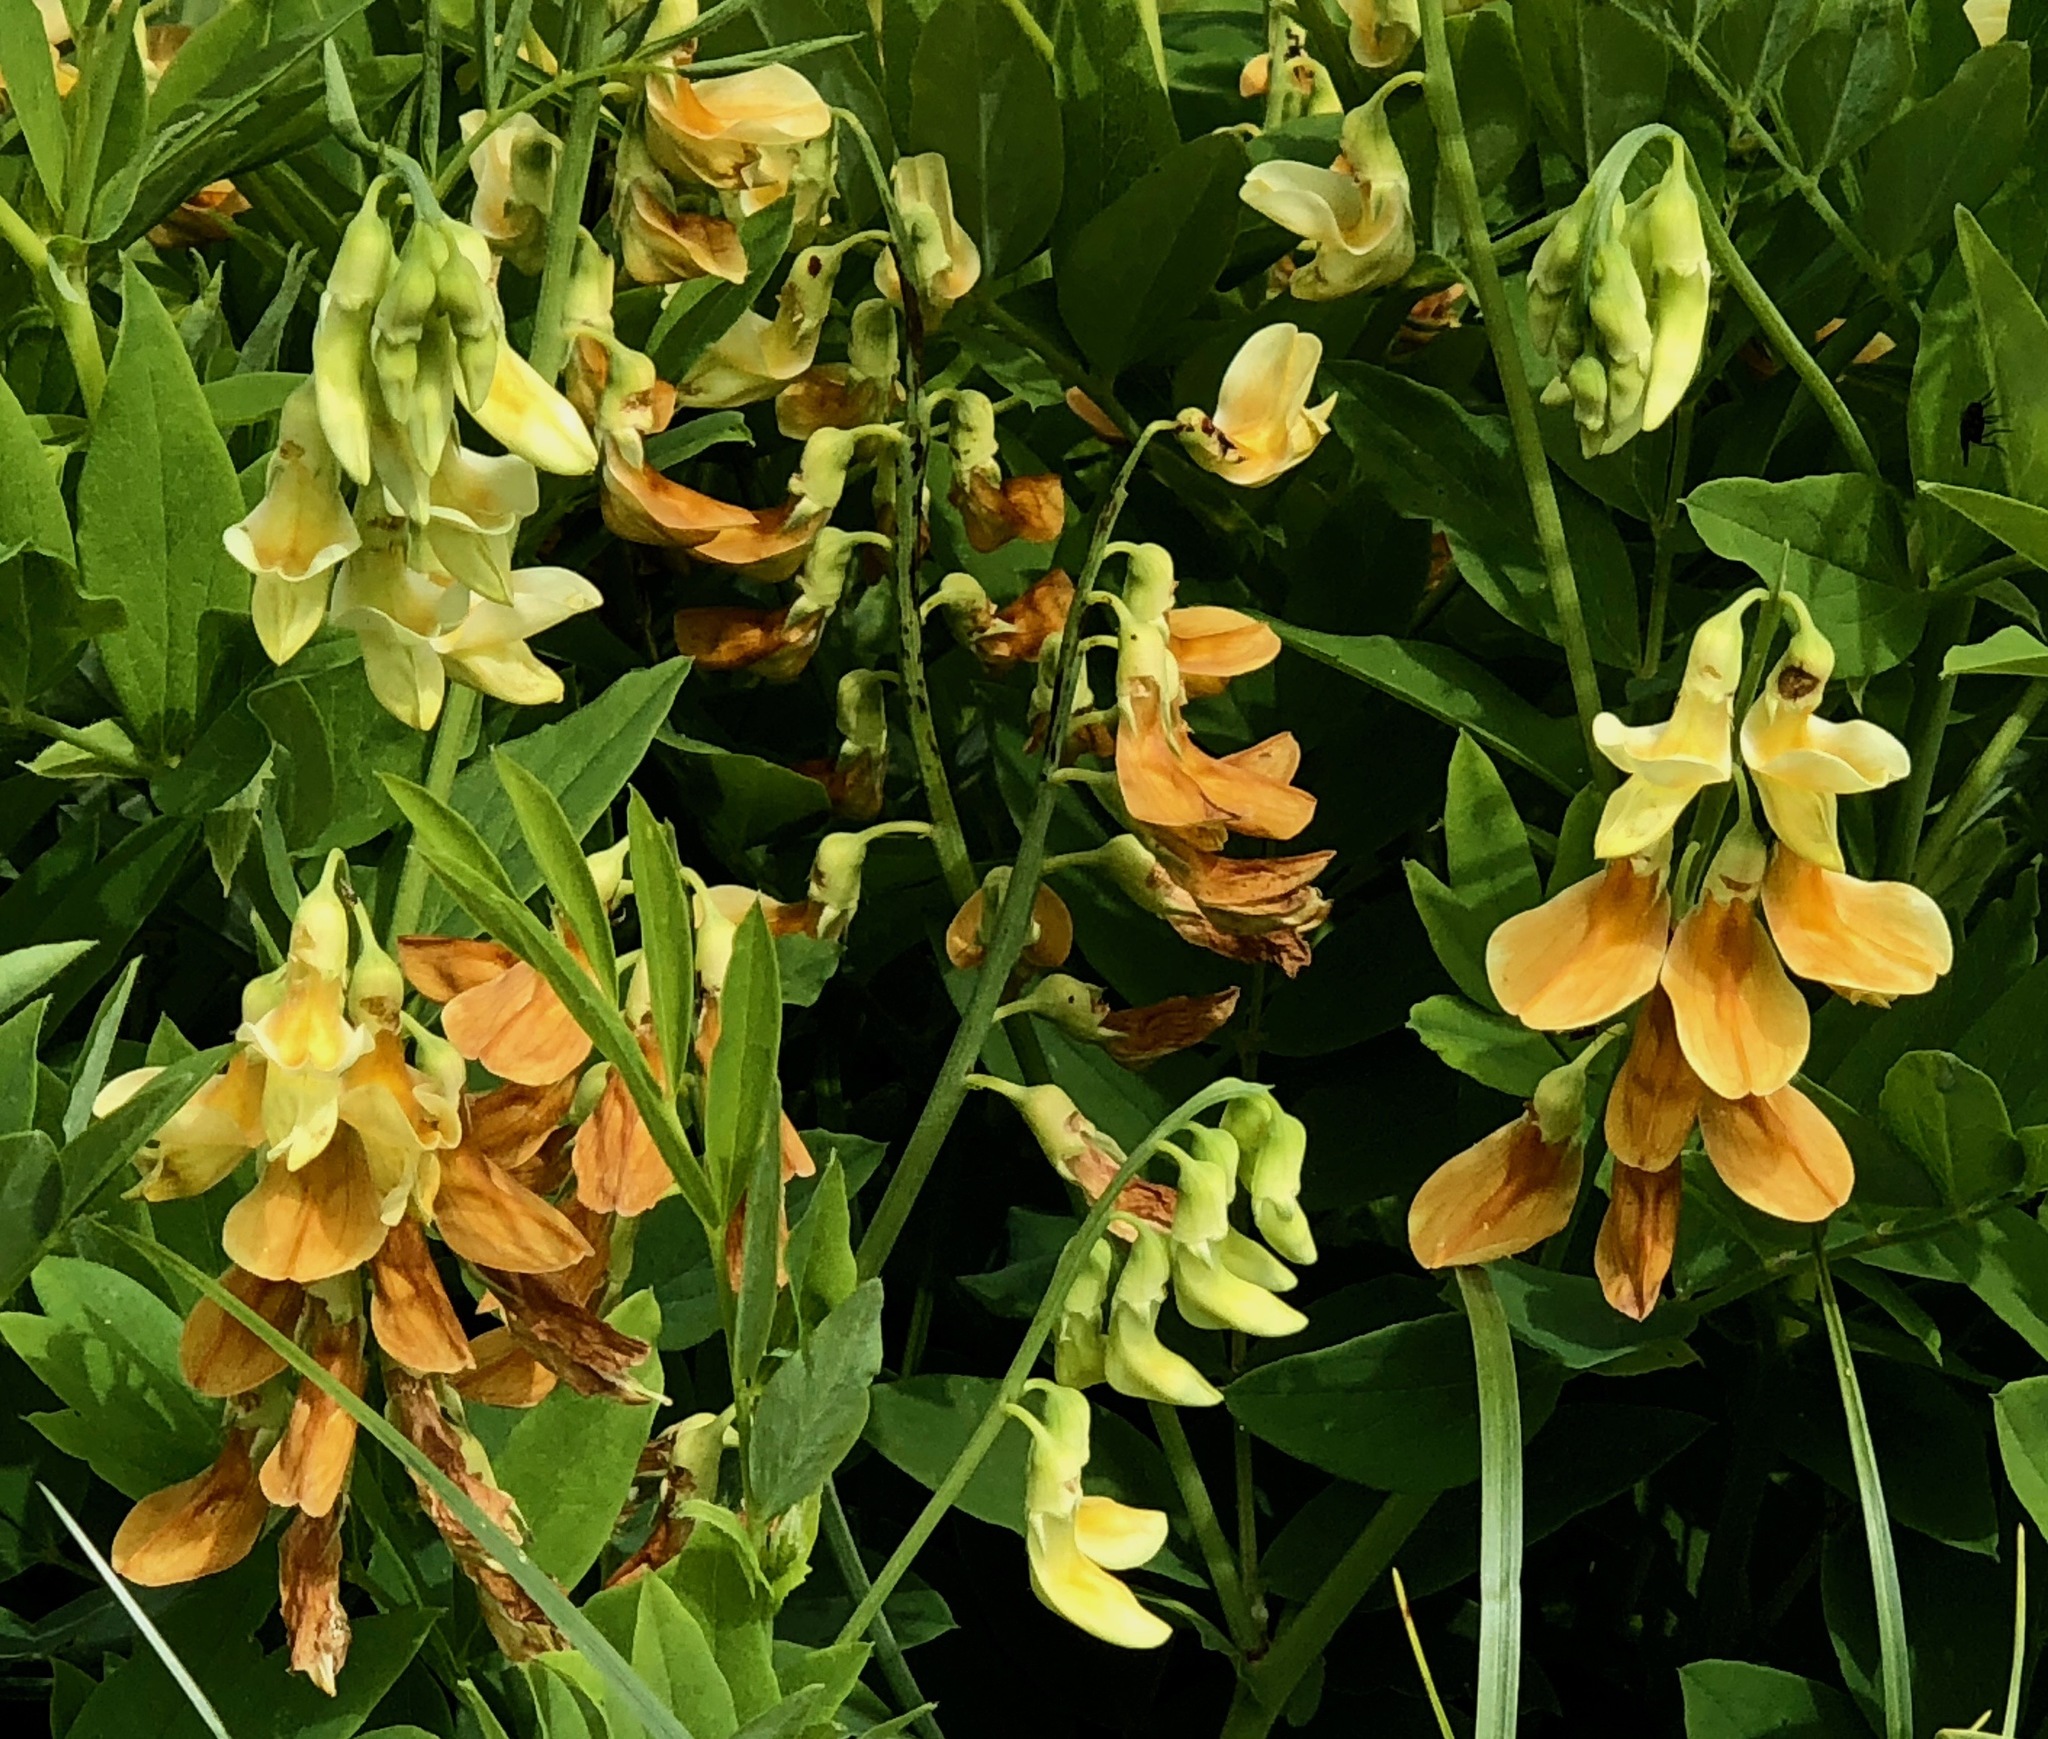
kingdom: Plantae
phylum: Tracheophyta
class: Magnoliopsida
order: Fabales
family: Fabaceae
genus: Lathyrus
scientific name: Lathyrus laevigatus
